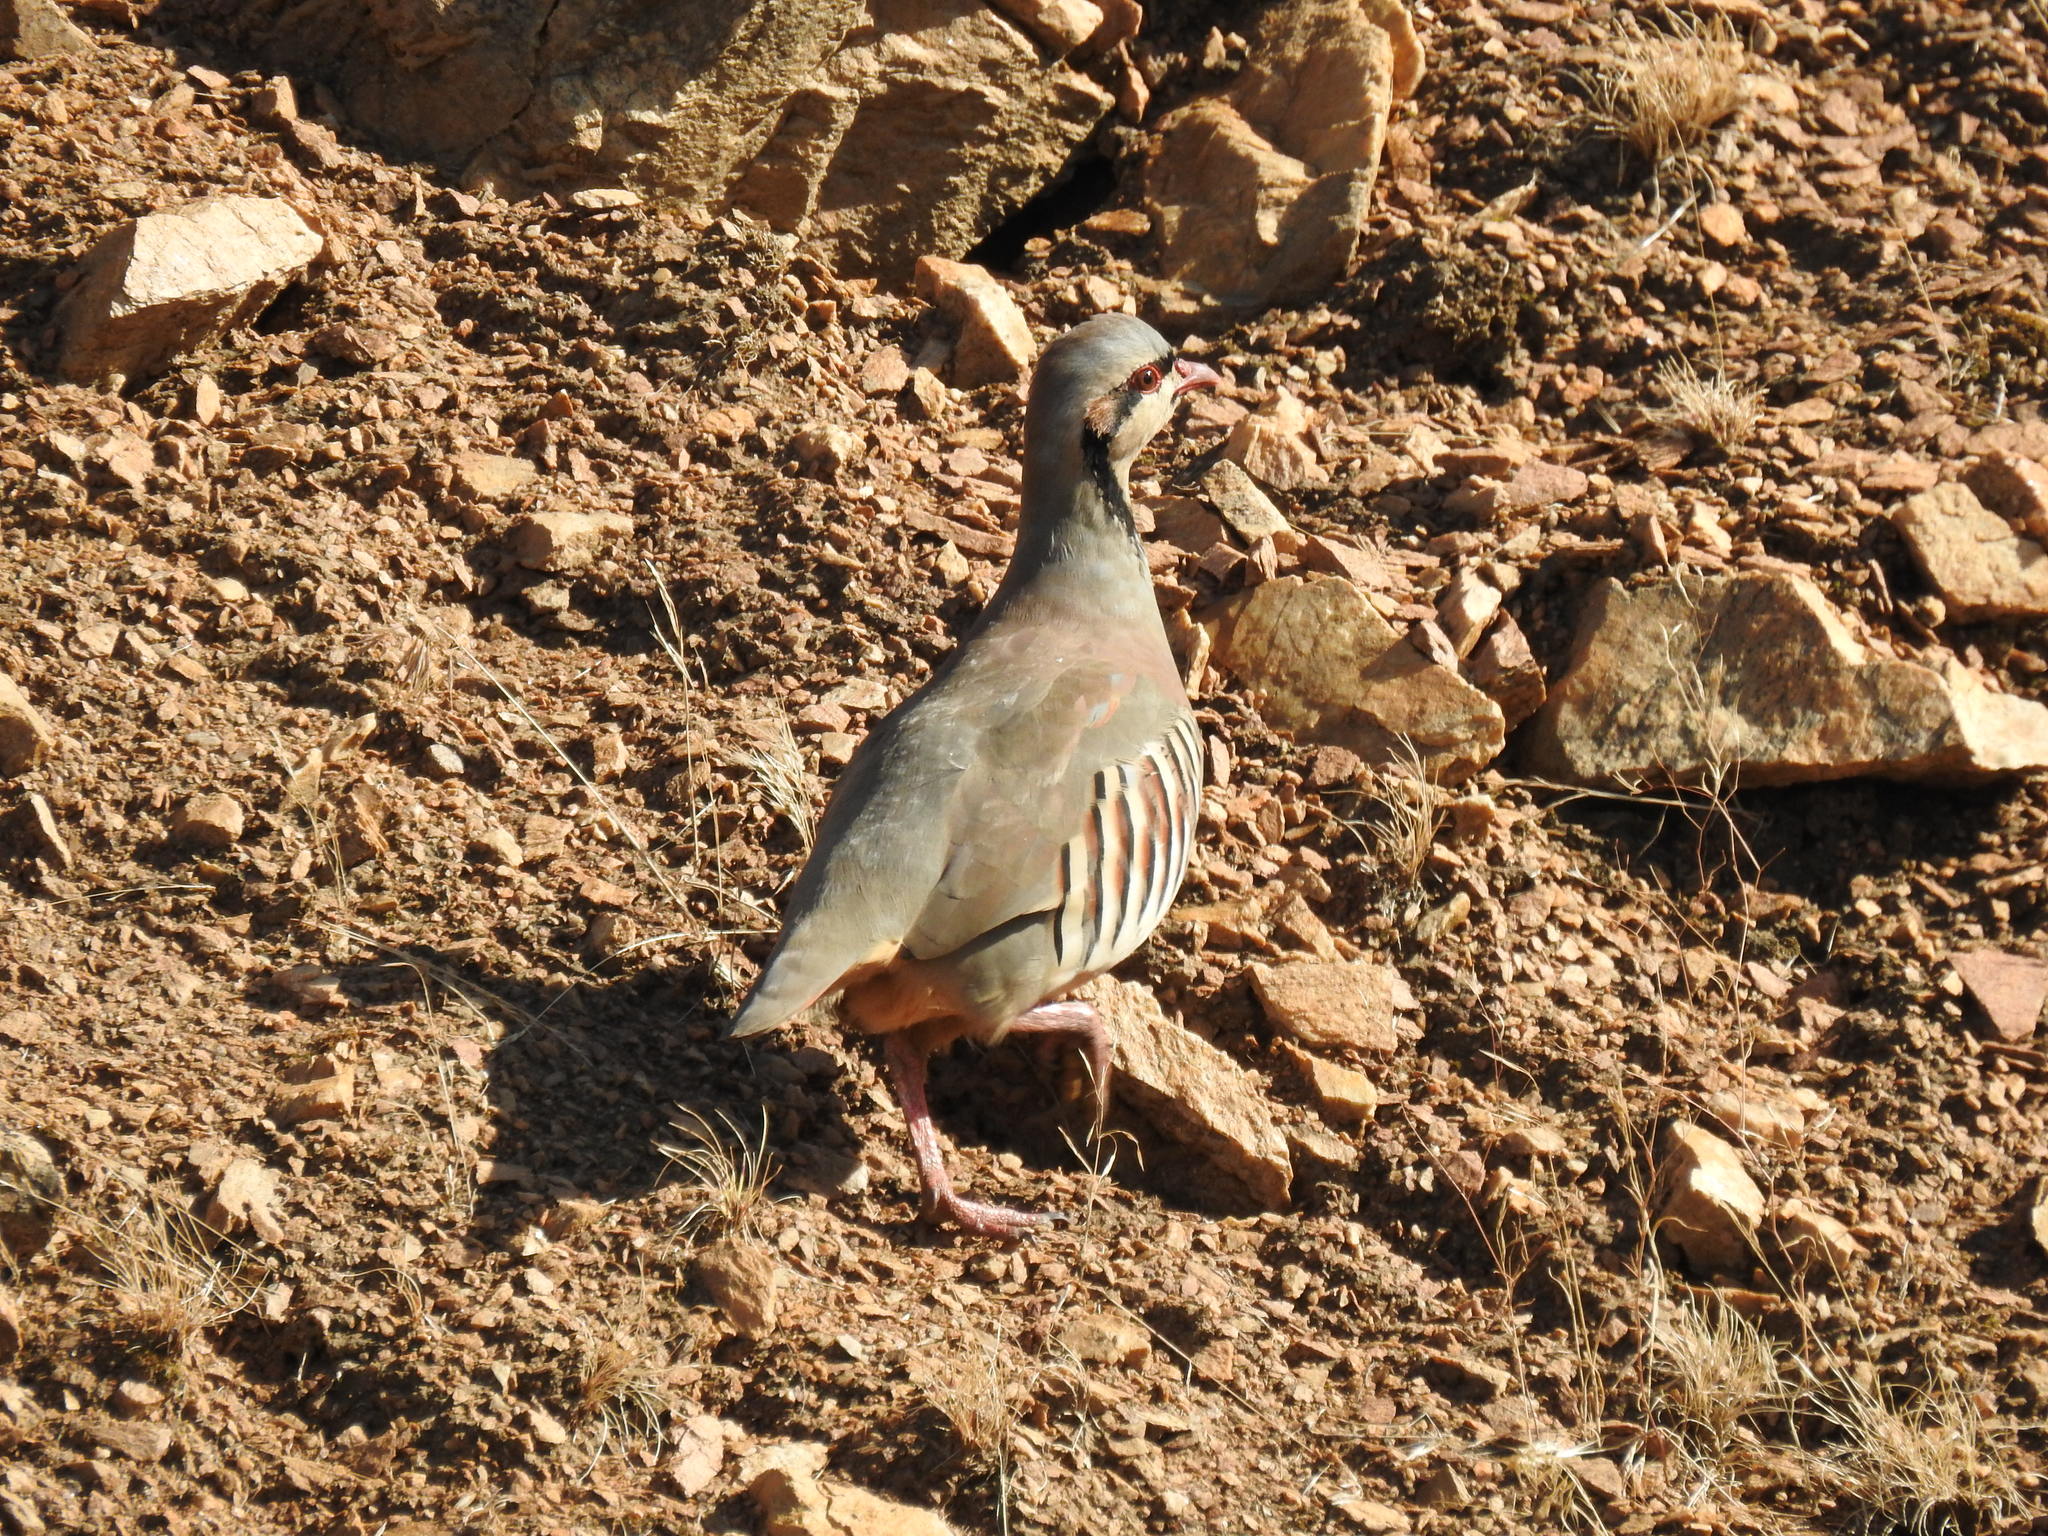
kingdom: Animalia
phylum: Chordata
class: Aves
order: Galliformes
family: Phasianidae
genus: Alectoris
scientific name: Alectoris chukar
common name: Chukar
